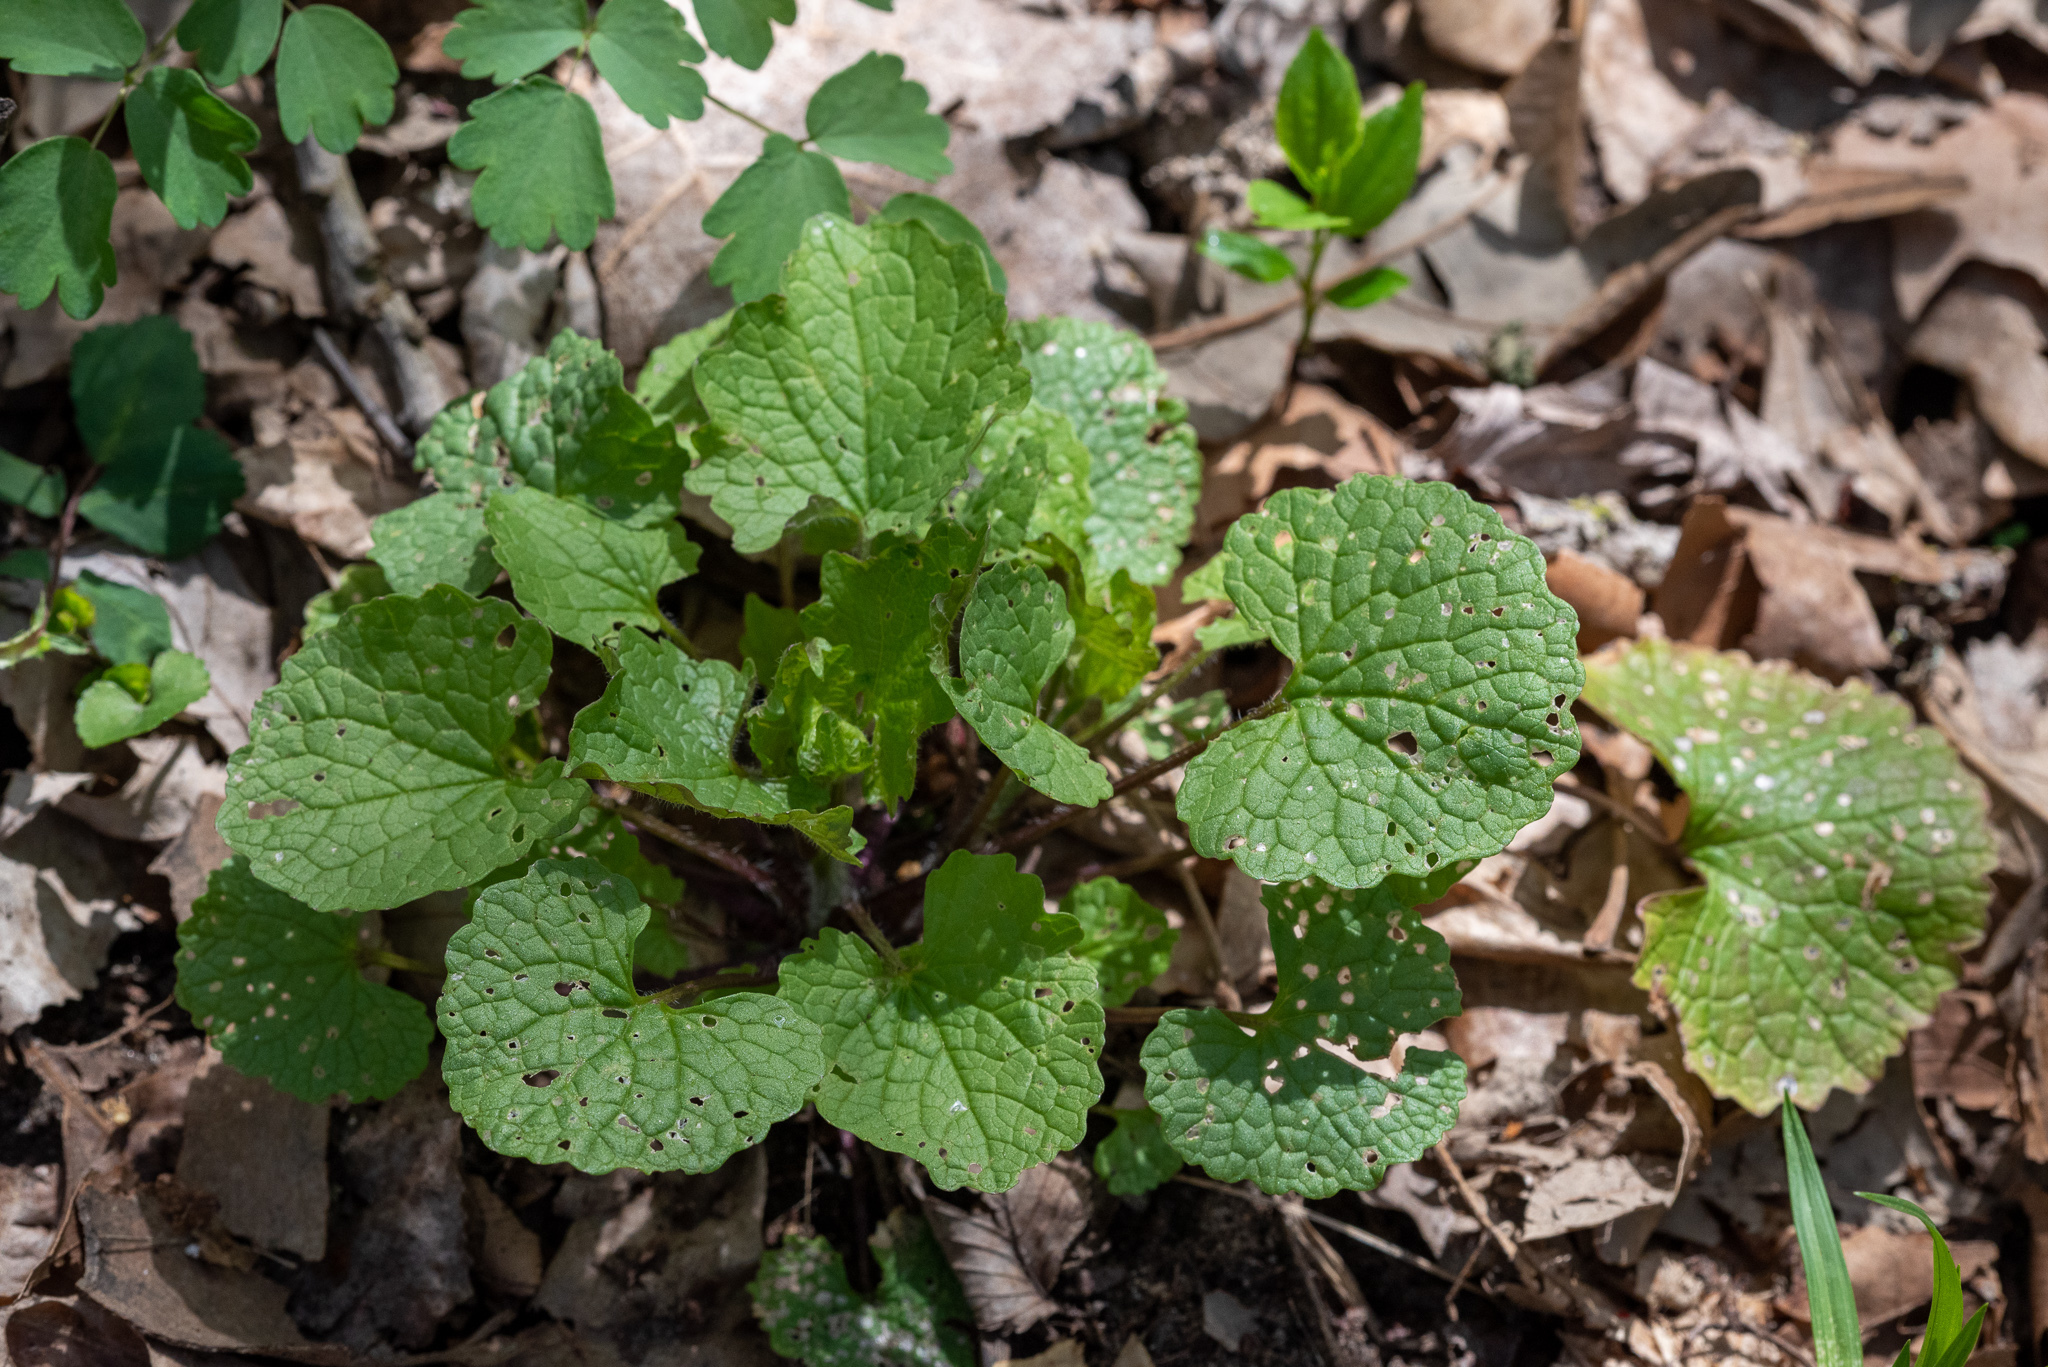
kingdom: Plantae
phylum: Tracheophyta
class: Magnoliopsida
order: Brassicales
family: Brassicaceae
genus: Alliaria
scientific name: Alliaria petiolata
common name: Garlic mustard
